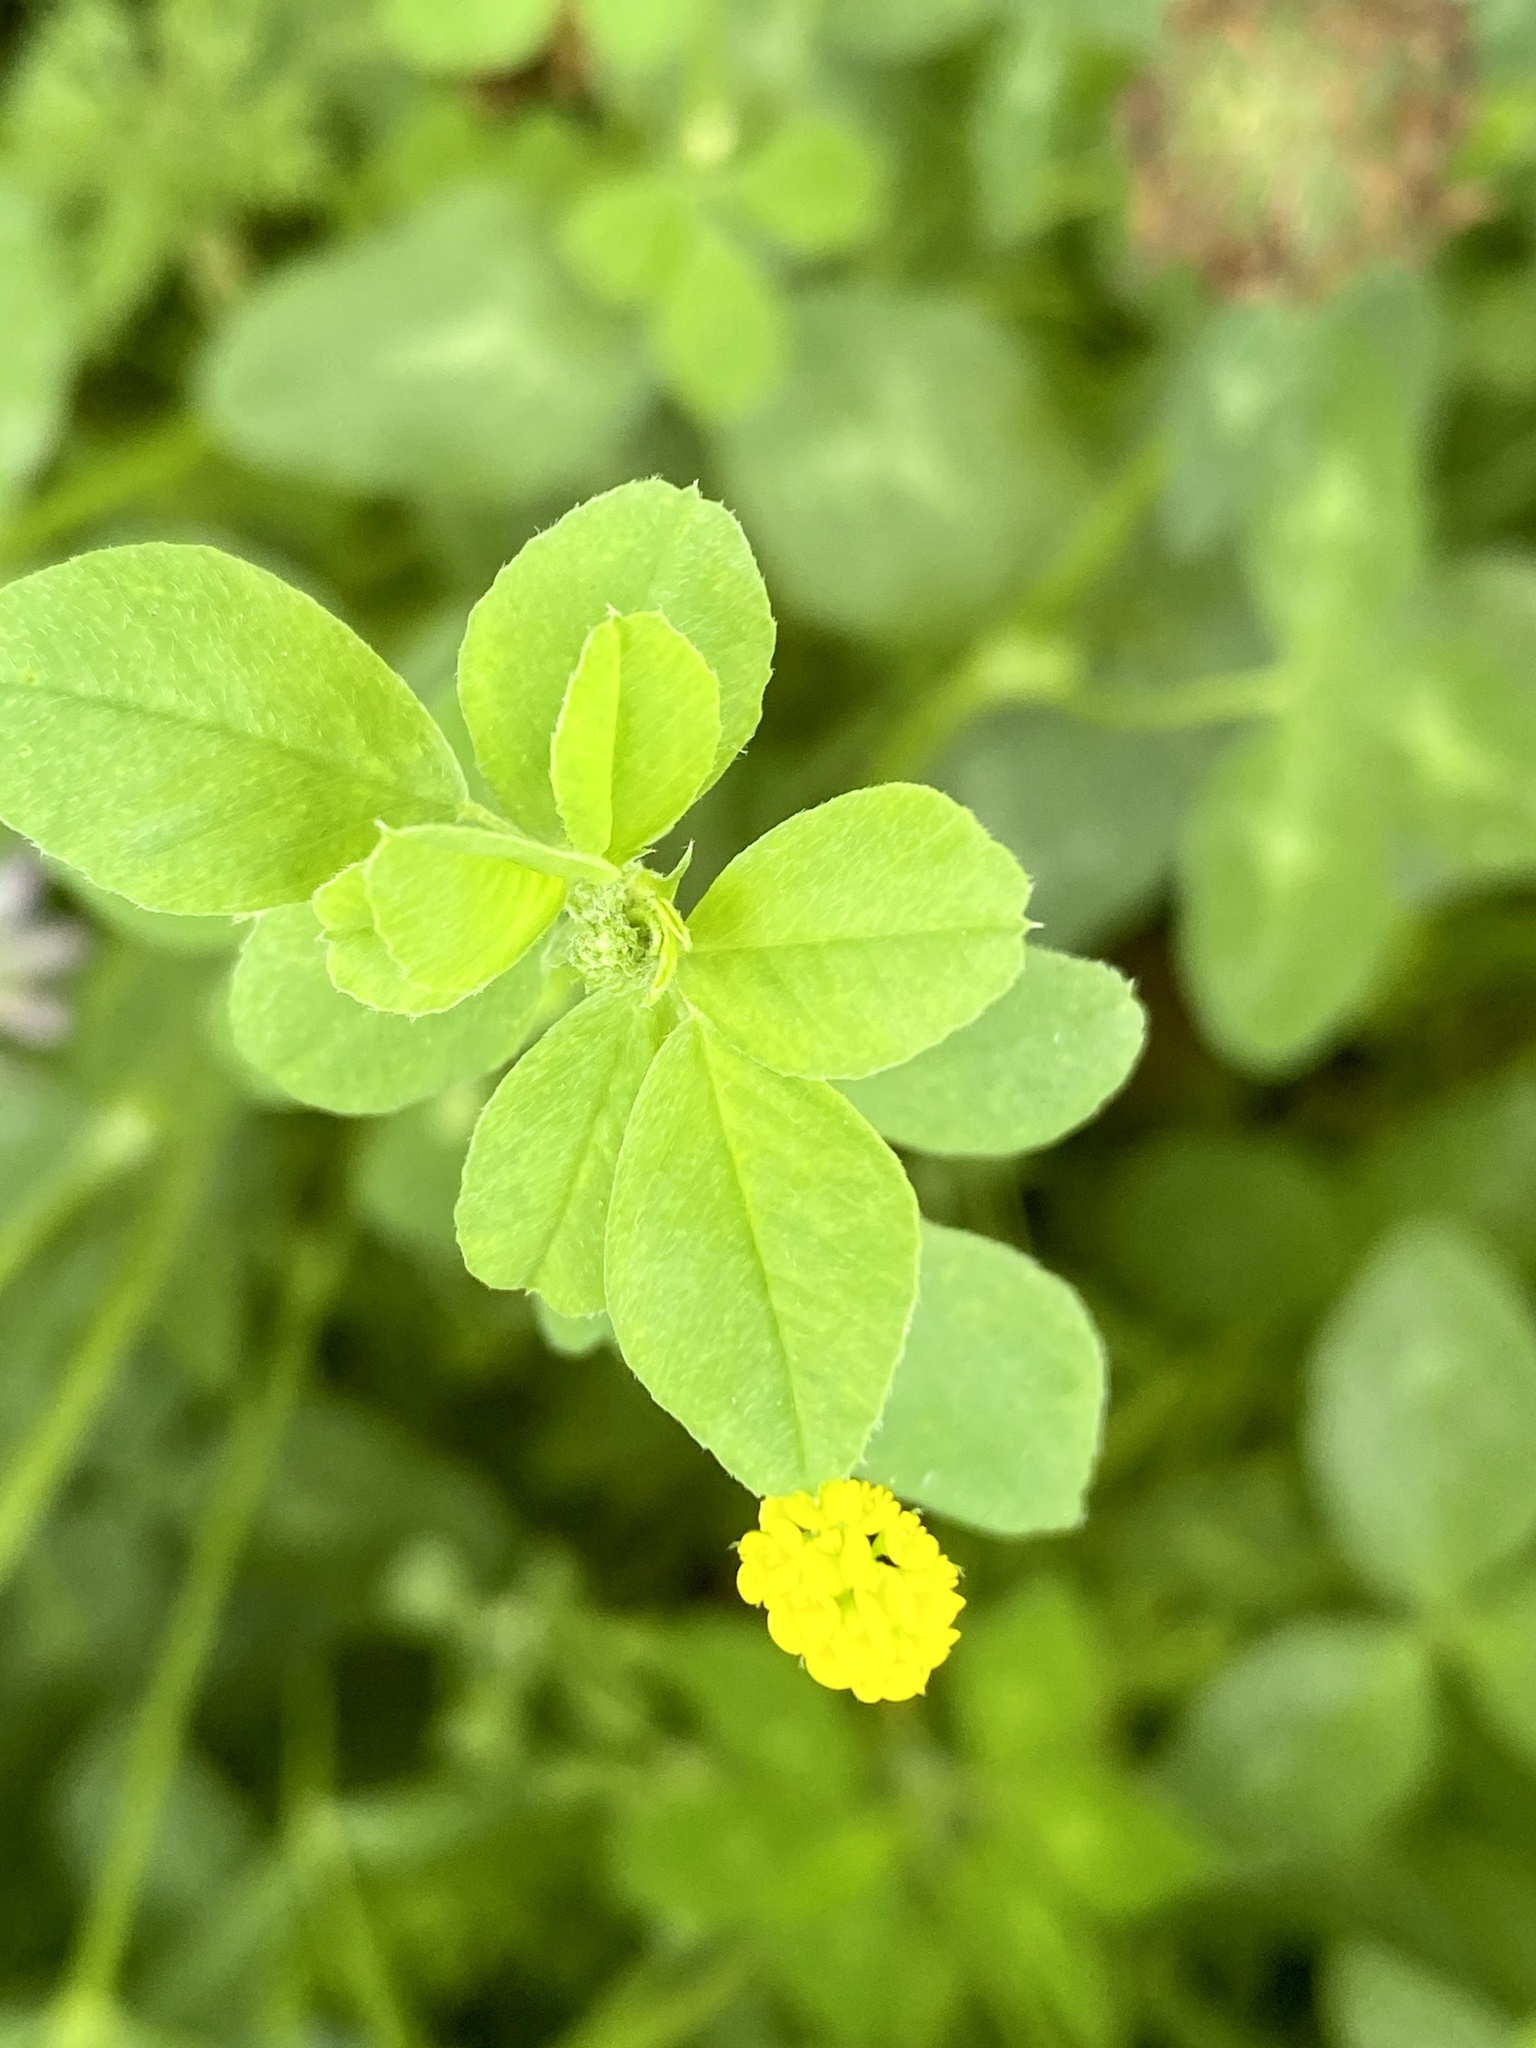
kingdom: Plantae
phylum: Tracheophyta
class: Magnoliopsida
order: Fabales
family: Fabaceae
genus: Medicago
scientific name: Medicago lupulina
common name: Black medick
